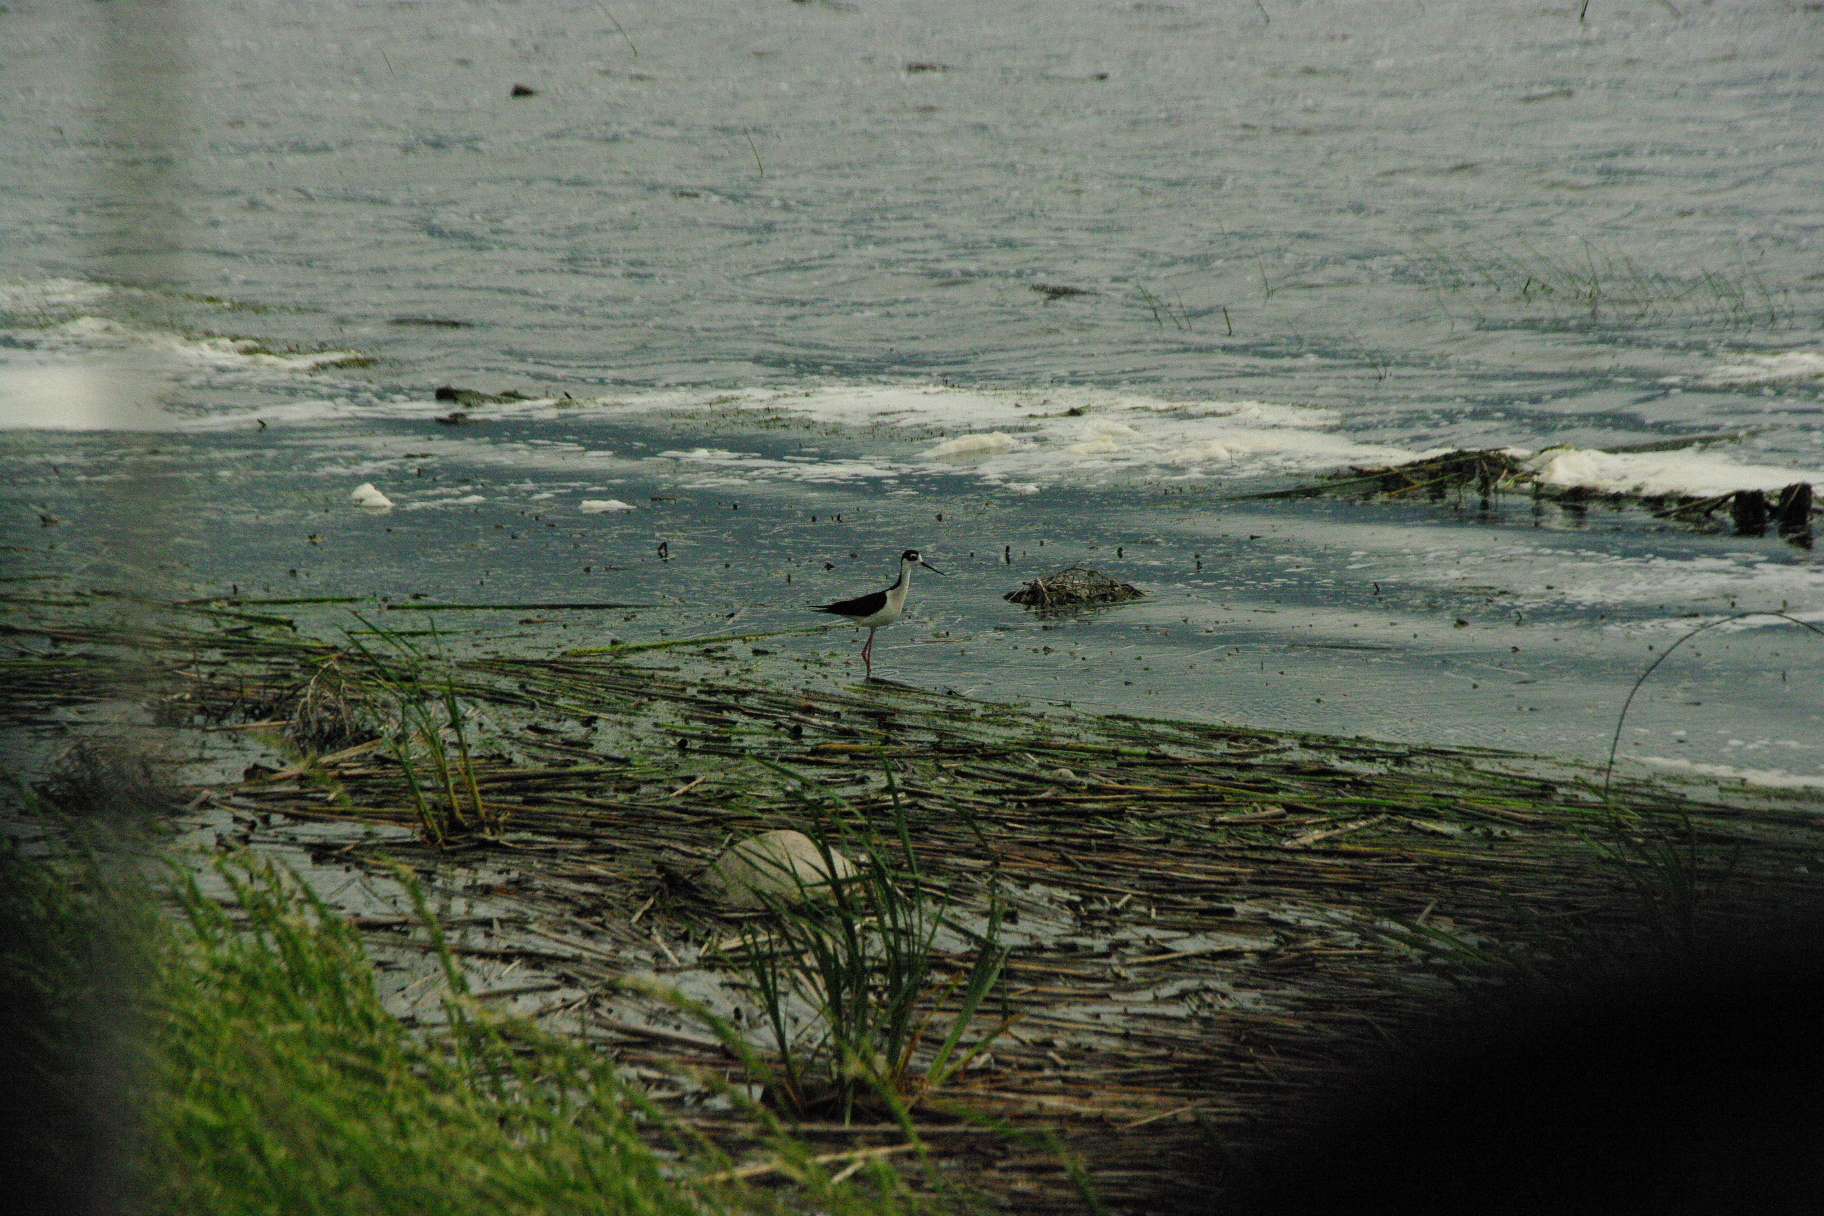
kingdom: Animalia
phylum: Chordata
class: Aves
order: Charadriiformes
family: Recurvirostridae
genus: Himantopus
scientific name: Himantopus mexicanus
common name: Black-necked stilt
